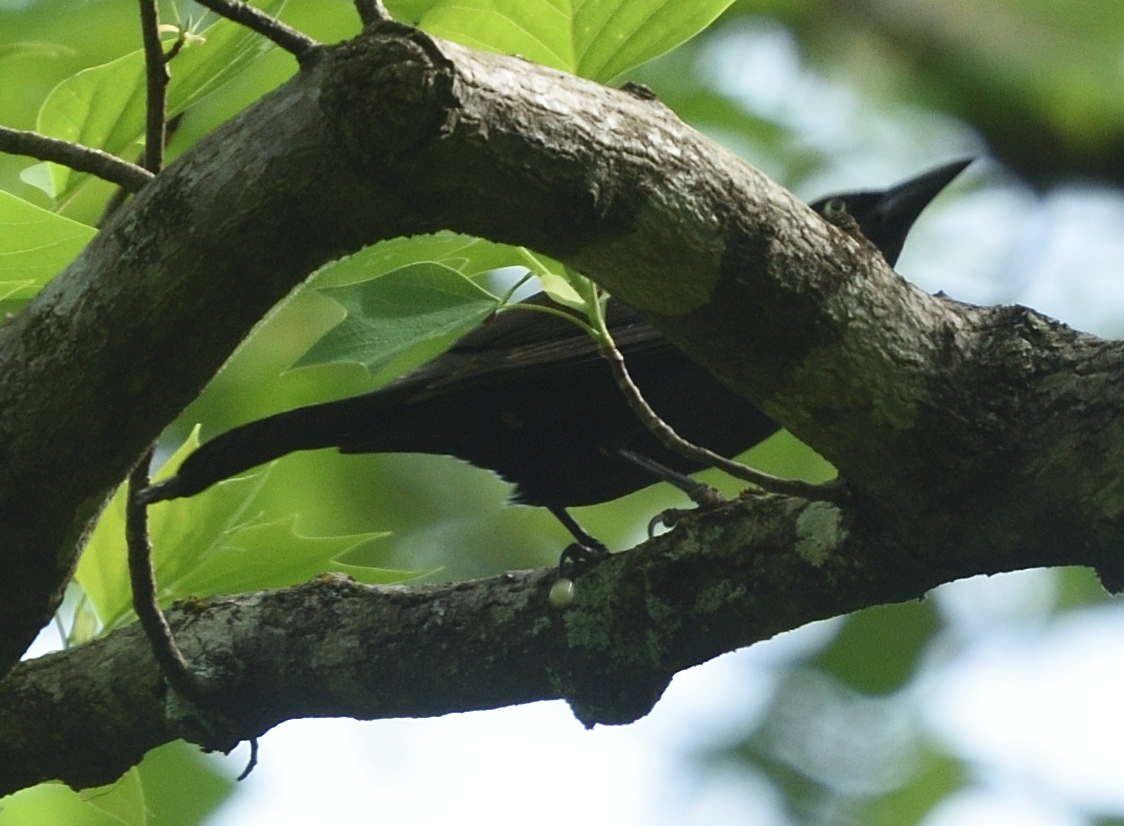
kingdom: Animalia
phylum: Chordata
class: Aves
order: Passeriformes
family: Icteridae
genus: Quiscalus
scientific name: Quiscalus quiscula
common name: Common grackle
